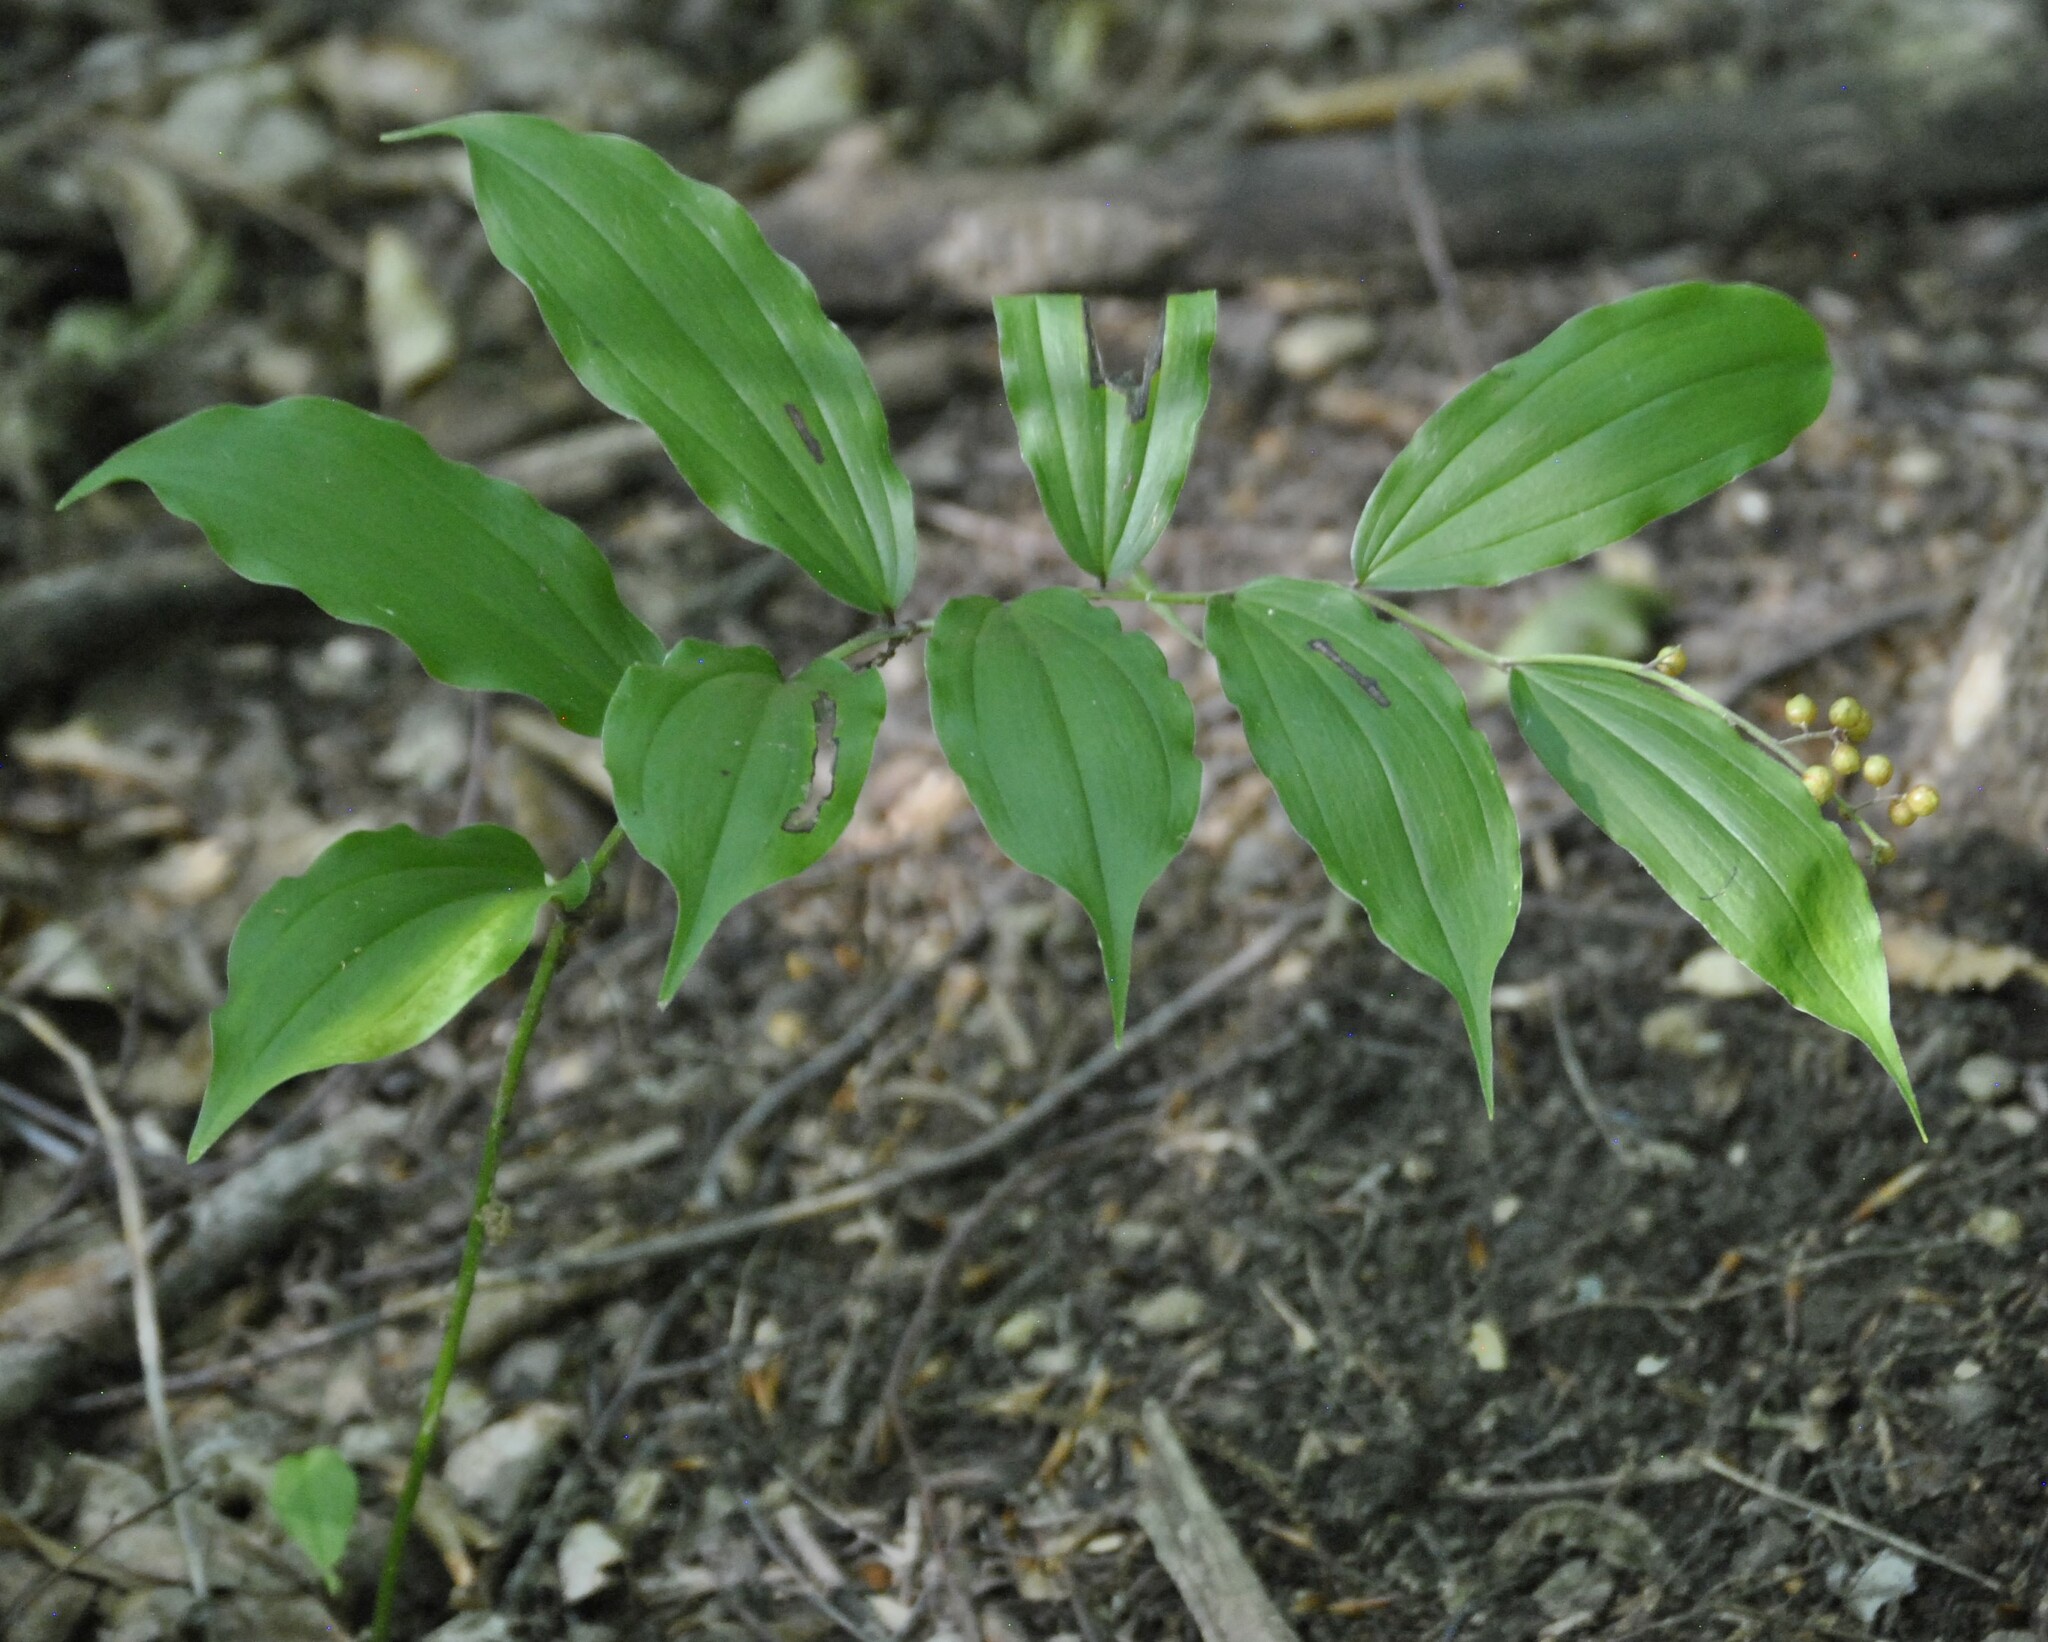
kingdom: Plantae
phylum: Tracheophyta
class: Liliopsida
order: Asparagales
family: Asparagaceae
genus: Maianthemum
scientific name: Maianthemum racemosum
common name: False spikenard
